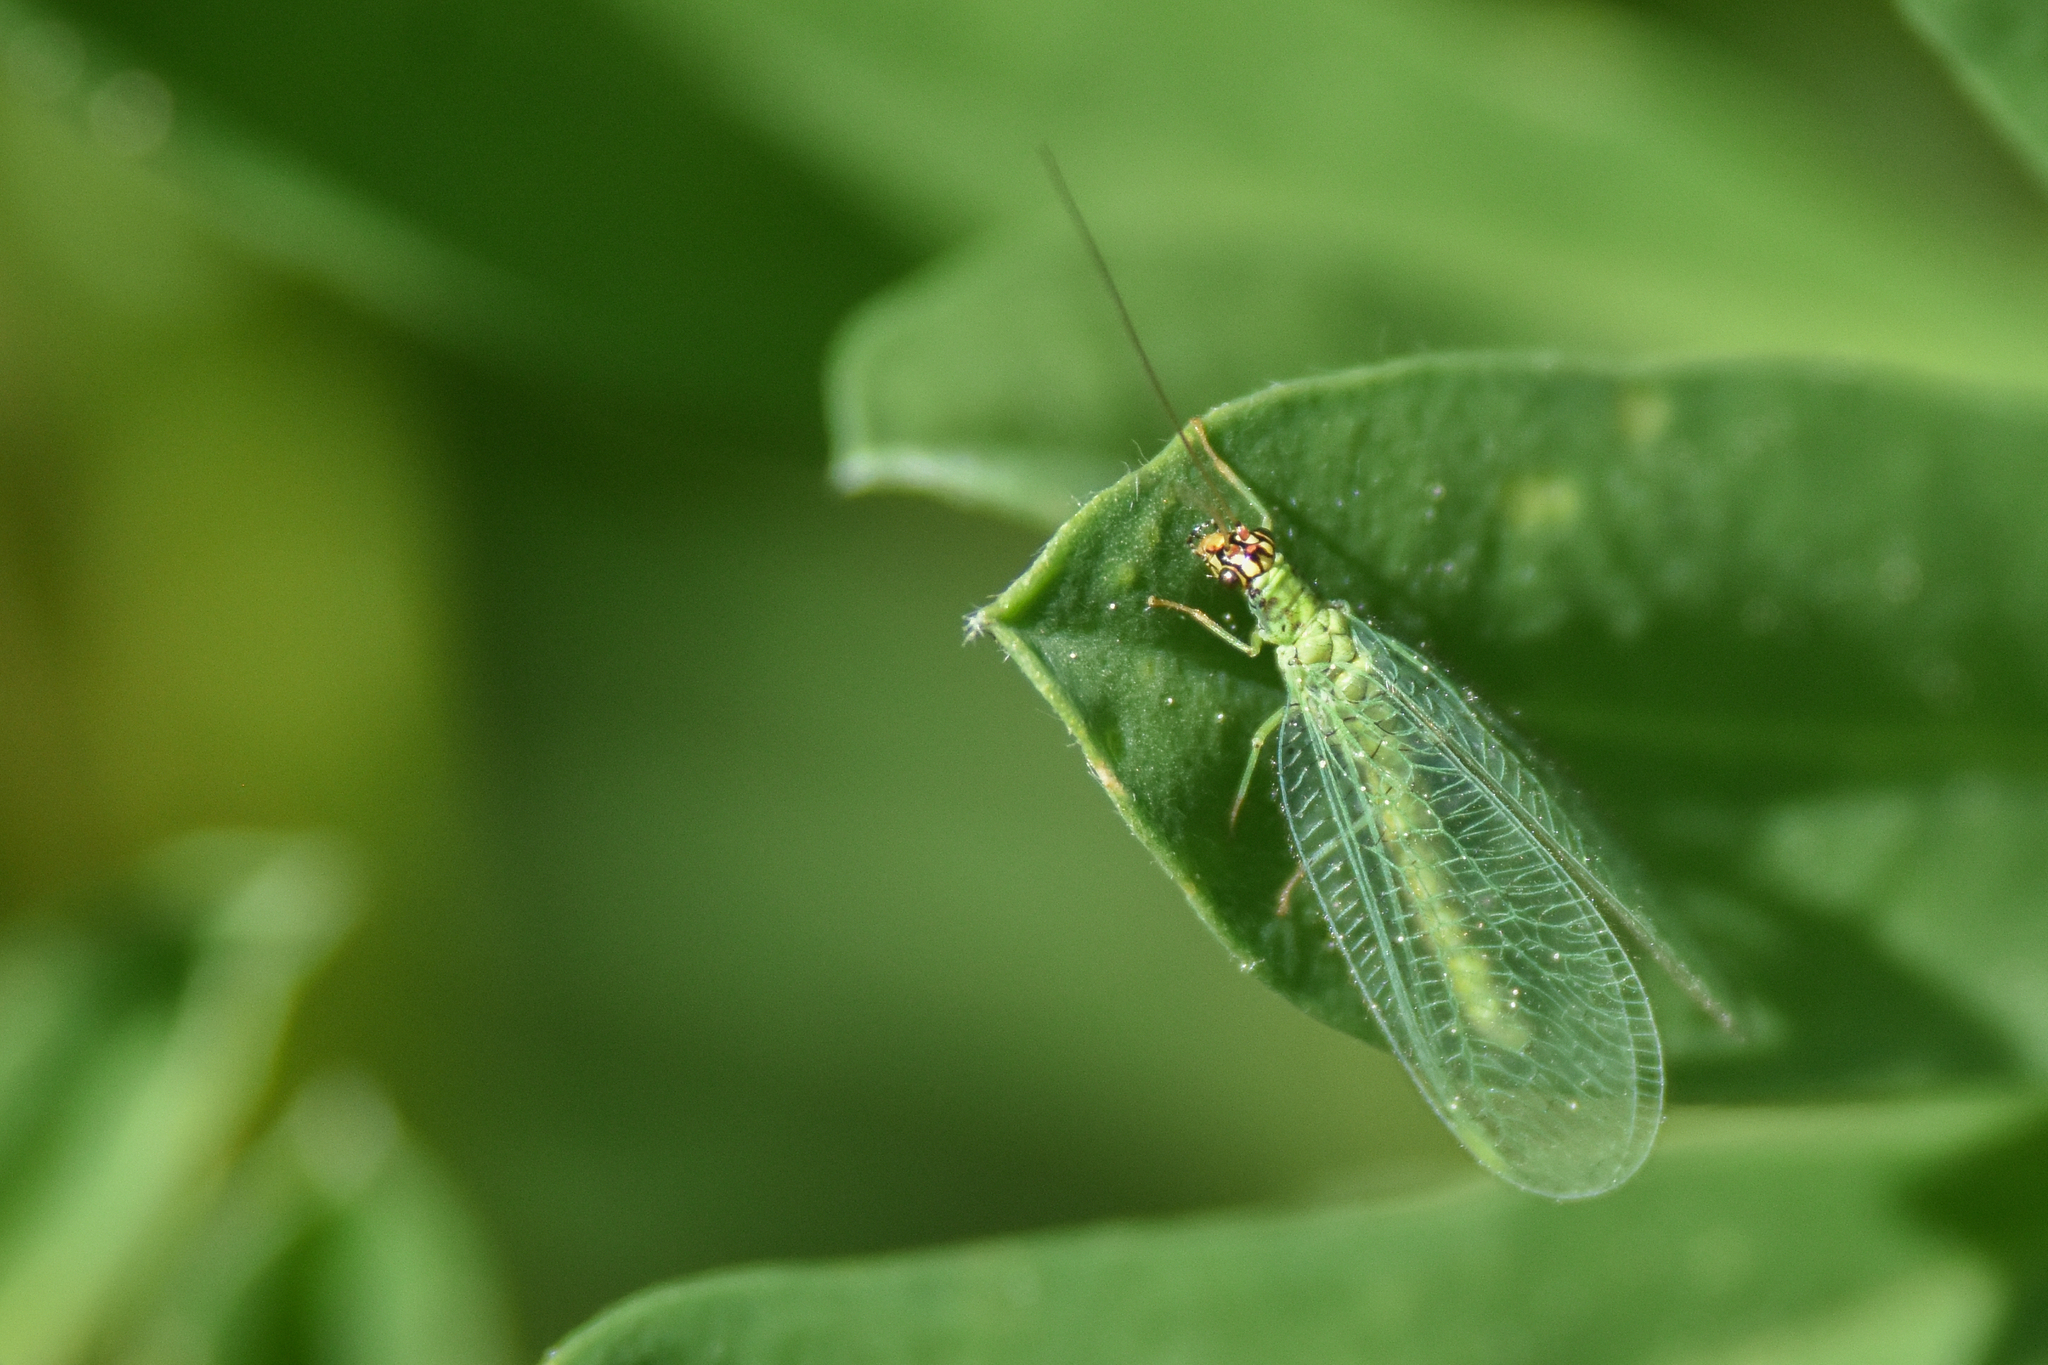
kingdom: Animalia
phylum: Arthropoda
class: Insecta
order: Neuroptera
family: Chrysopidae
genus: Chrysopa
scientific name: Chrysopa pleuralis
